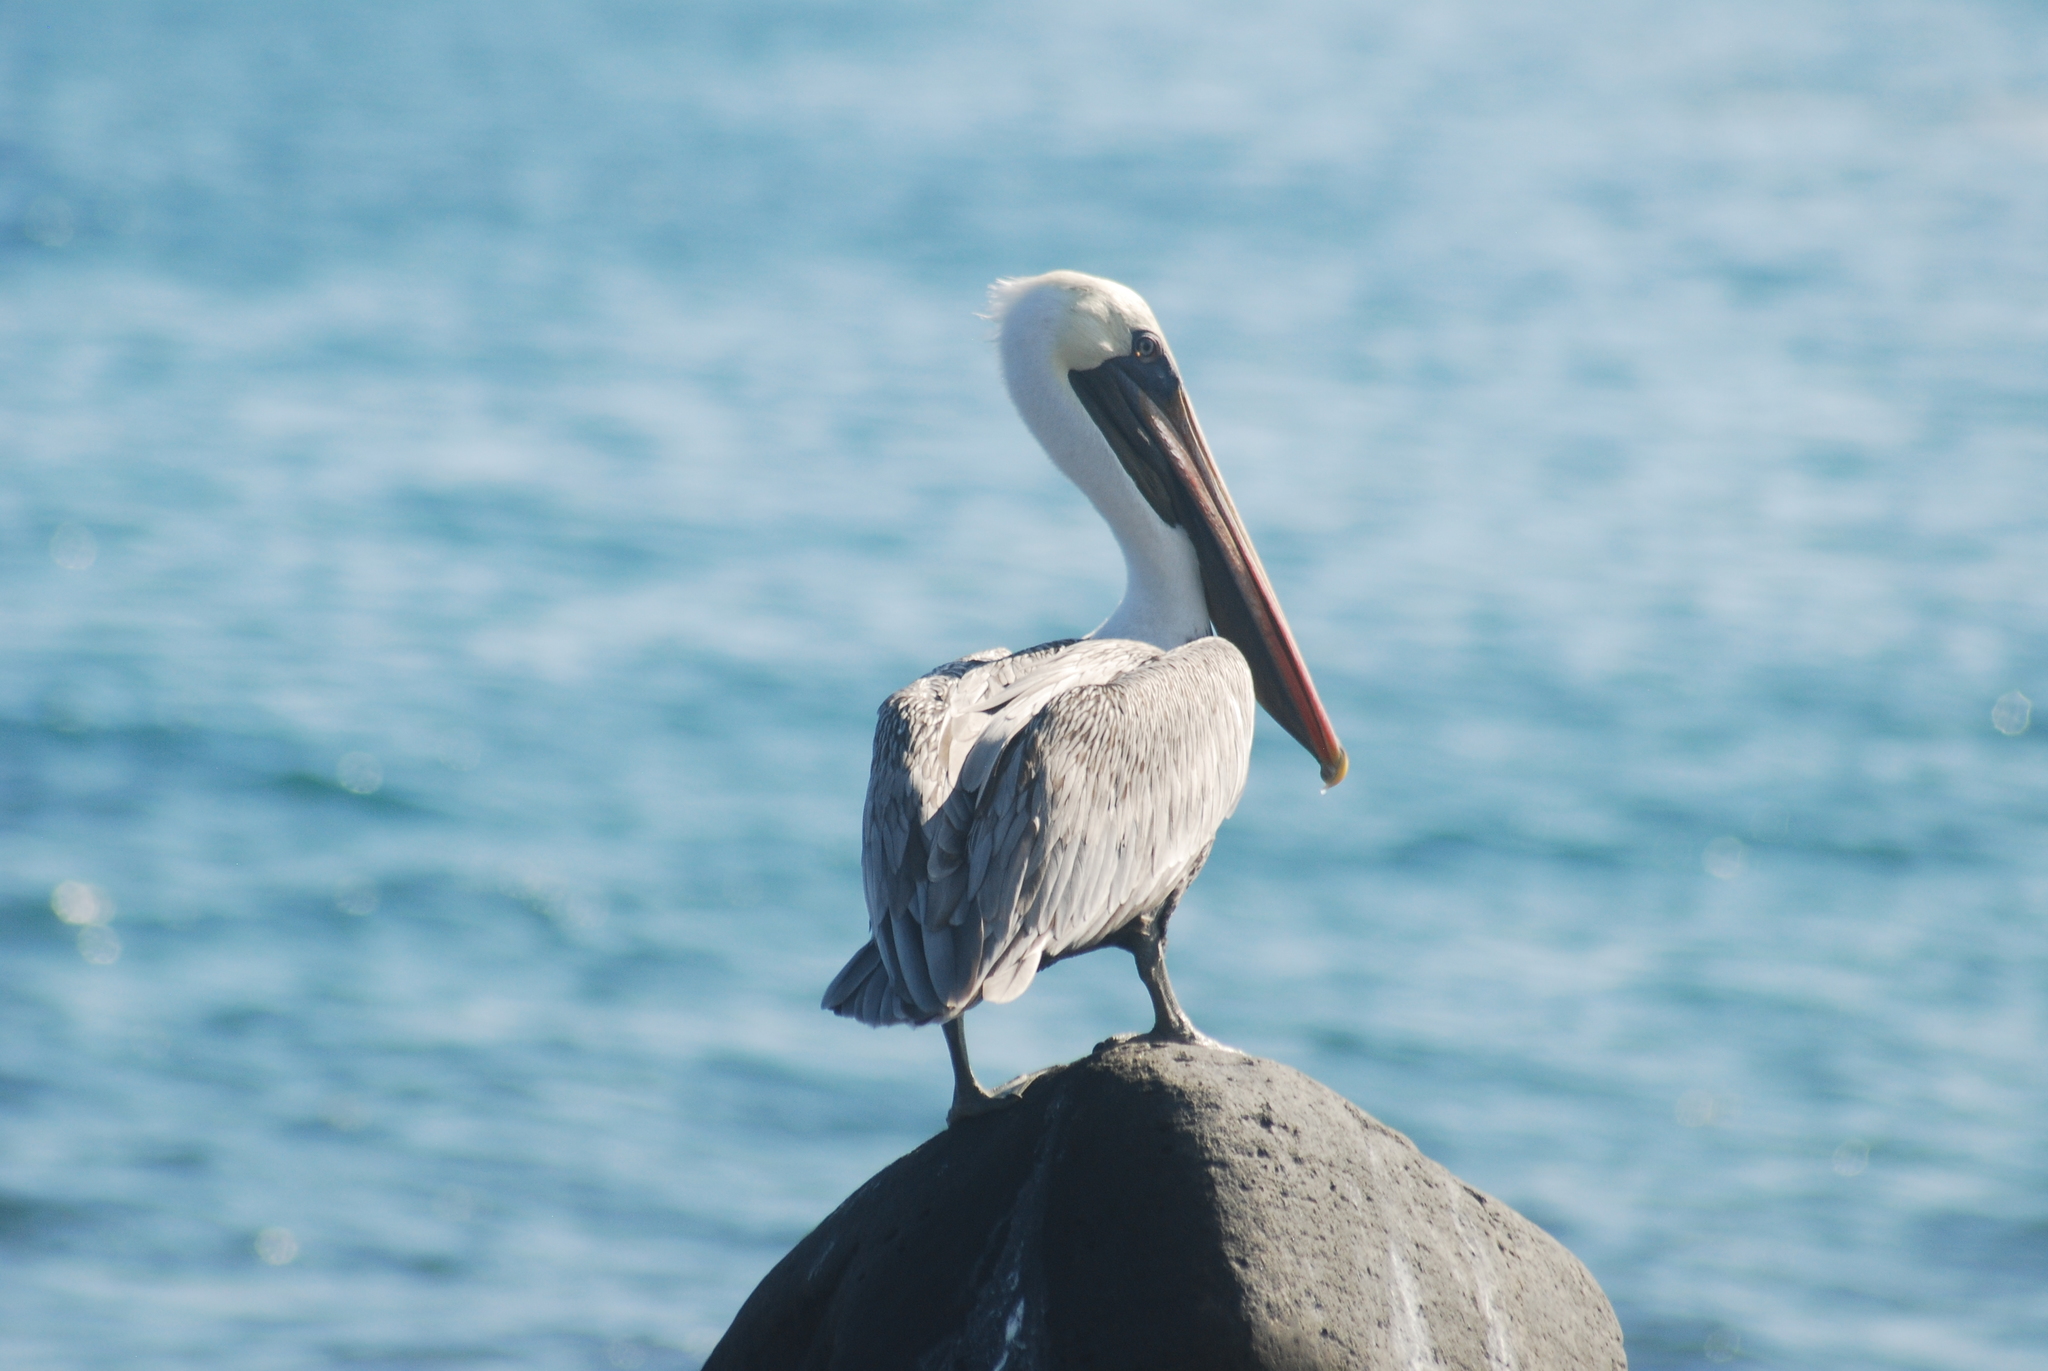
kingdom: Animalia
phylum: Chordata
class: Aves
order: Pelecaniformes
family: Pelecanidae
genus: Pelecanus
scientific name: Pelecanus occidentalis
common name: Brown pelican
